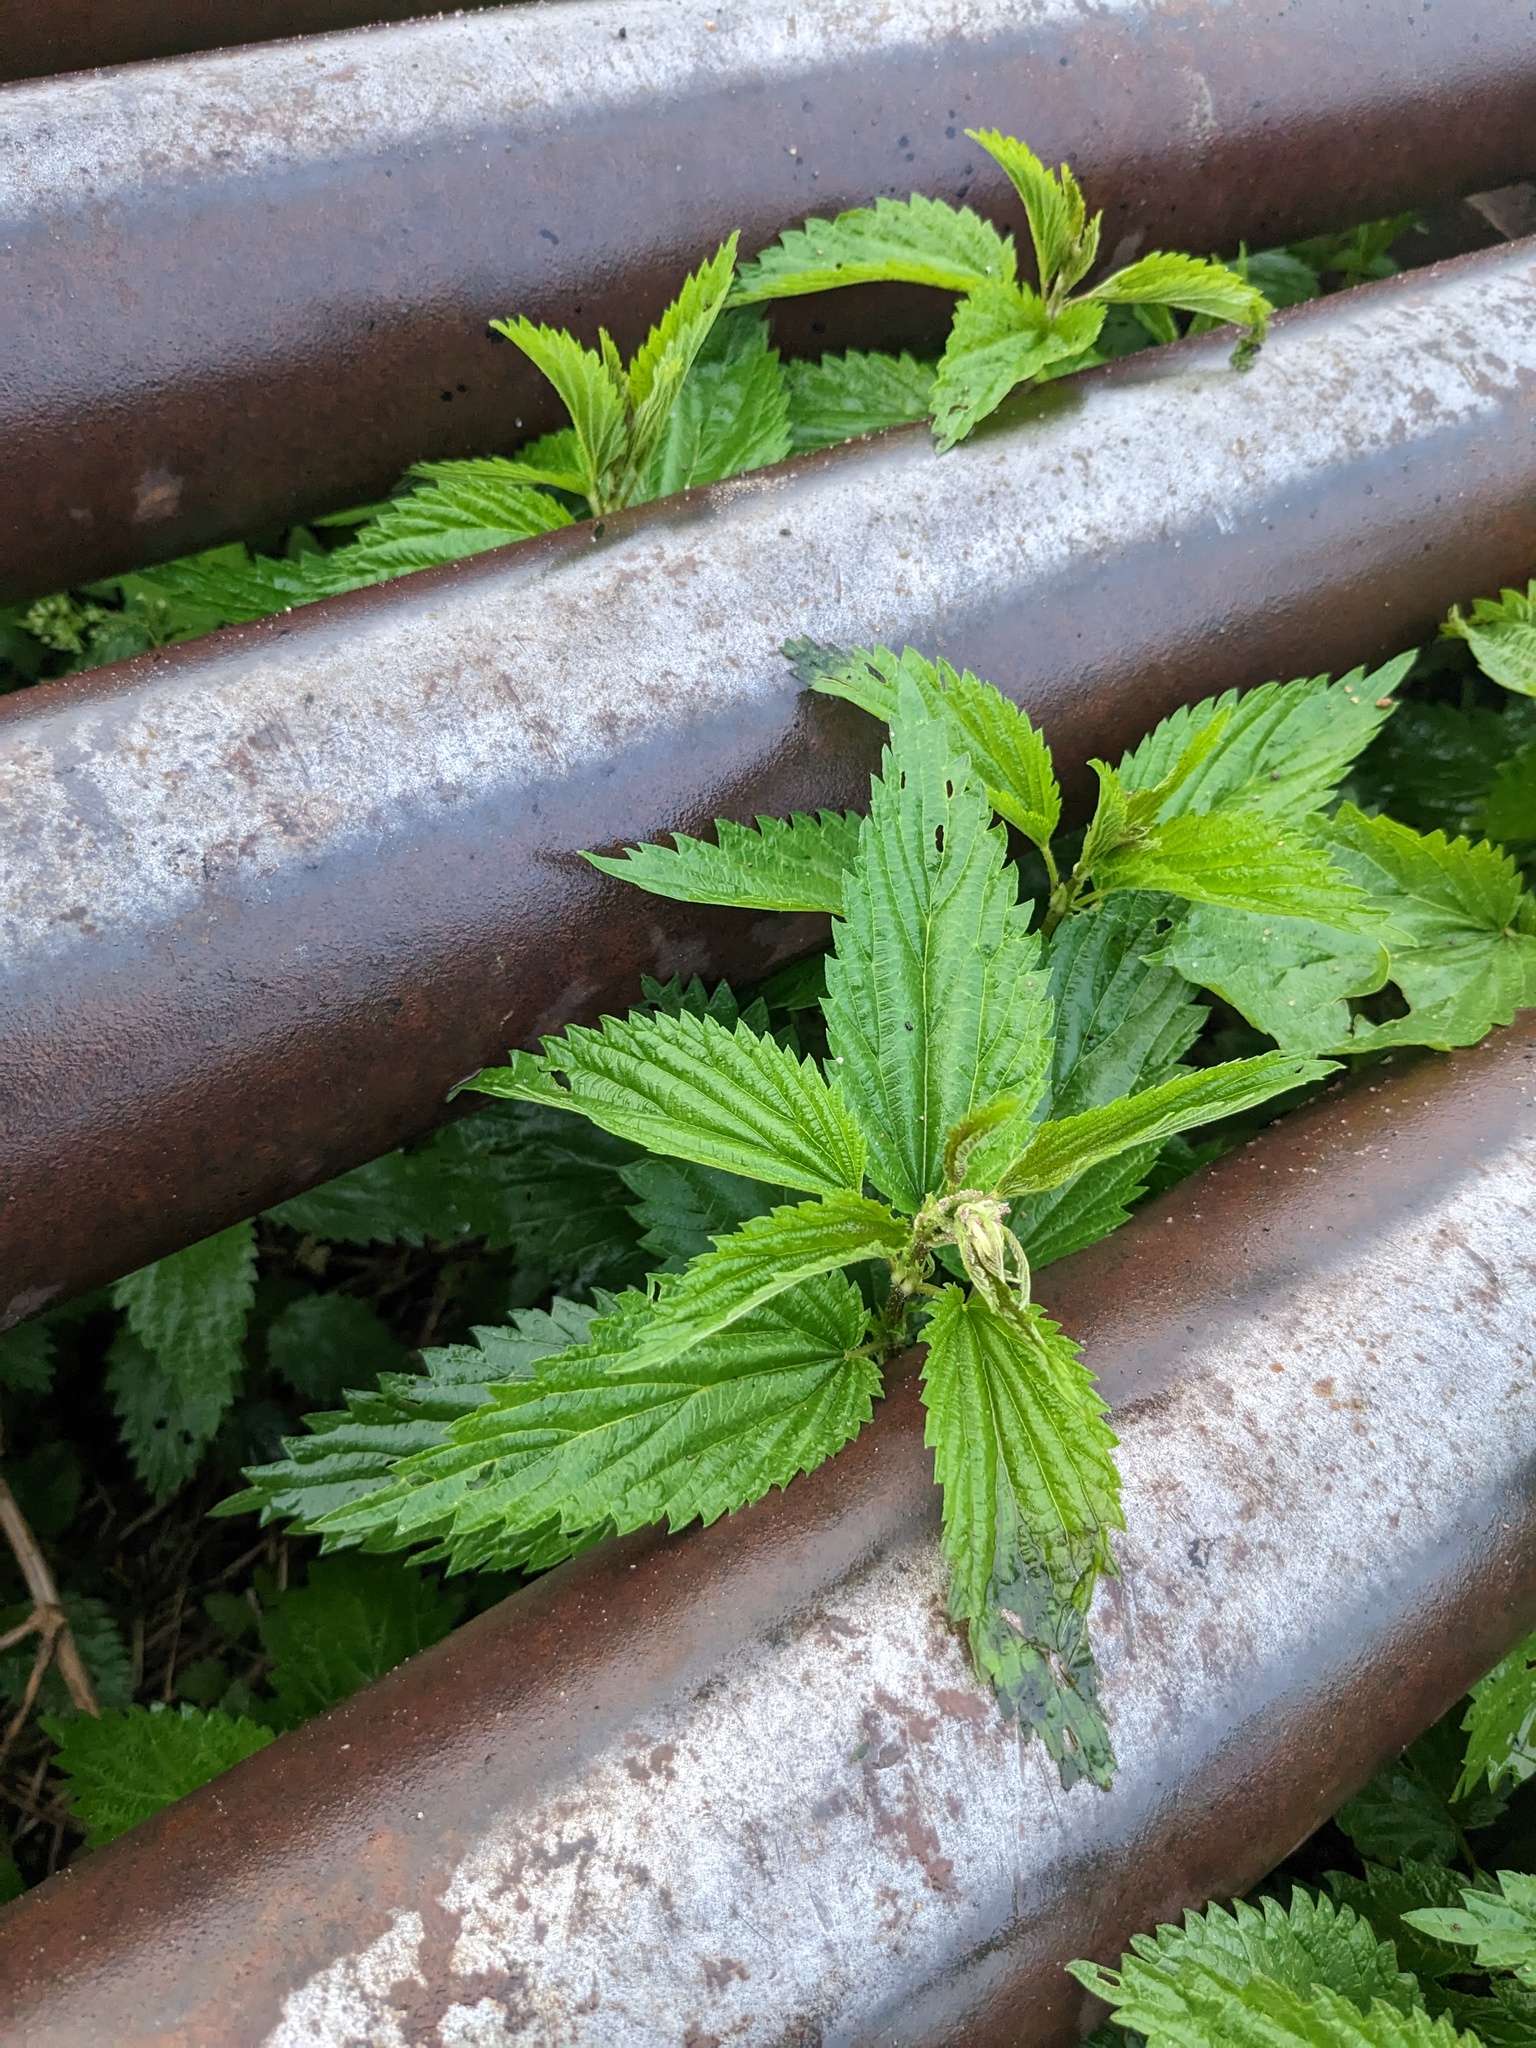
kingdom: Plantae
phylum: Tracheophyta
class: Magnoliopsida
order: Rosales
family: Urticaceae
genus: Urtica
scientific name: Urtica gracilis
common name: Slender stinging nettle
